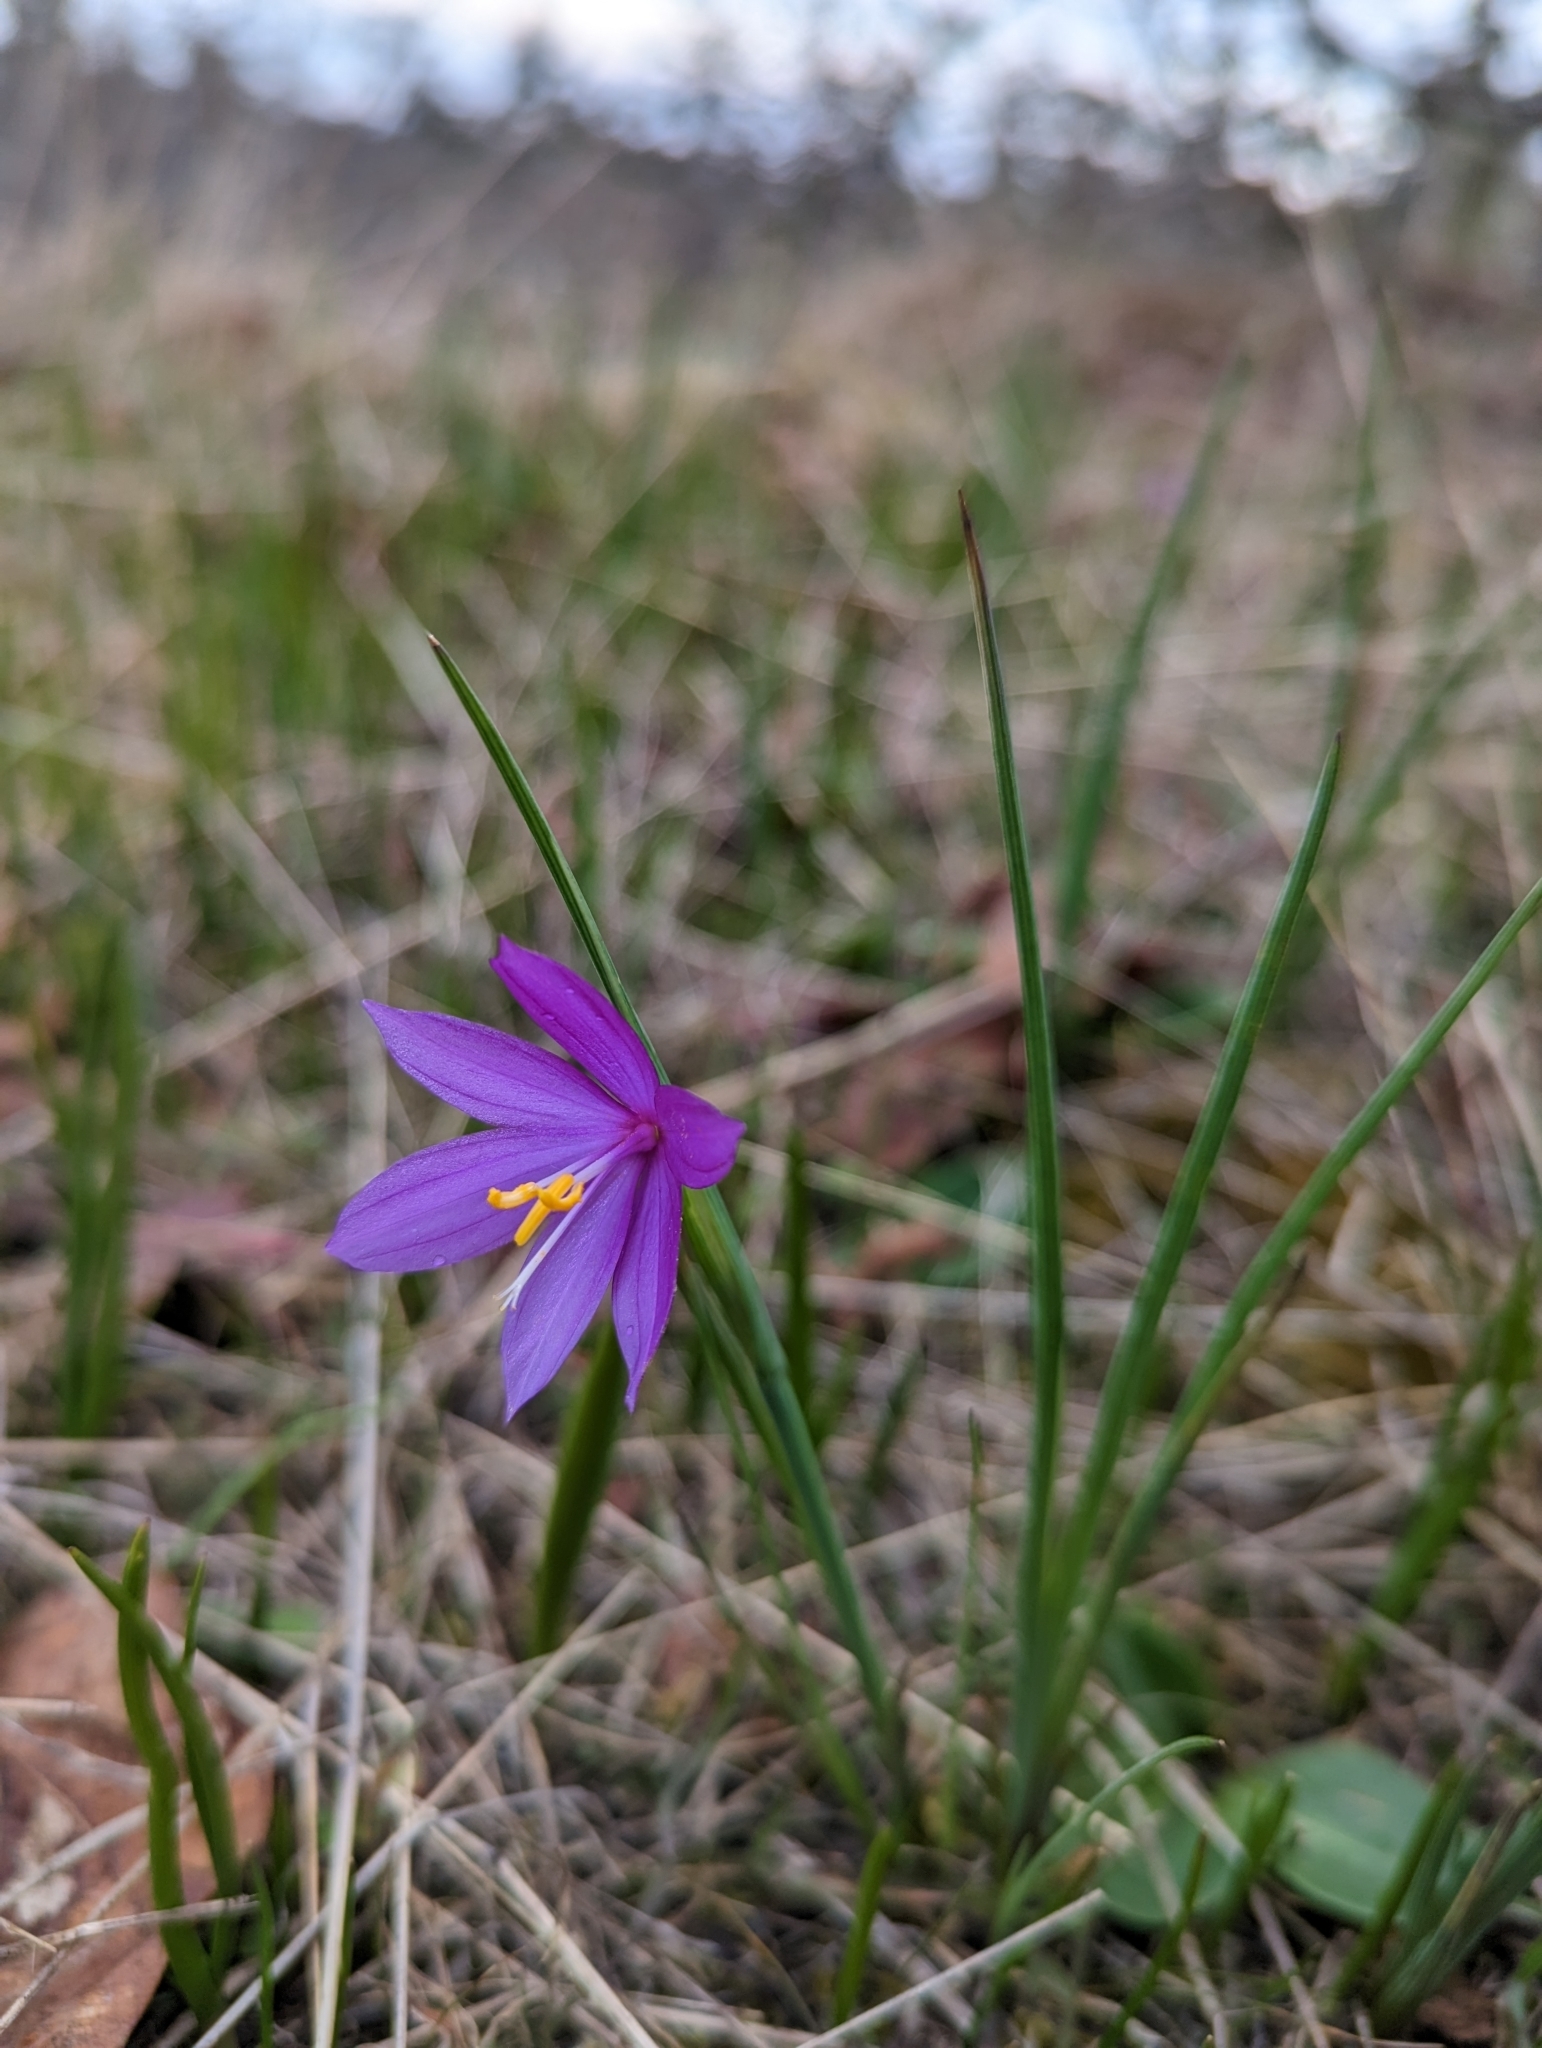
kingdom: Plantae
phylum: Tracheophyta
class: Liliopsida
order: Asparagales
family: Iridaceae
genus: Olsynium
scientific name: Olsynium douglasii
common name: Douglas' grasswidow
